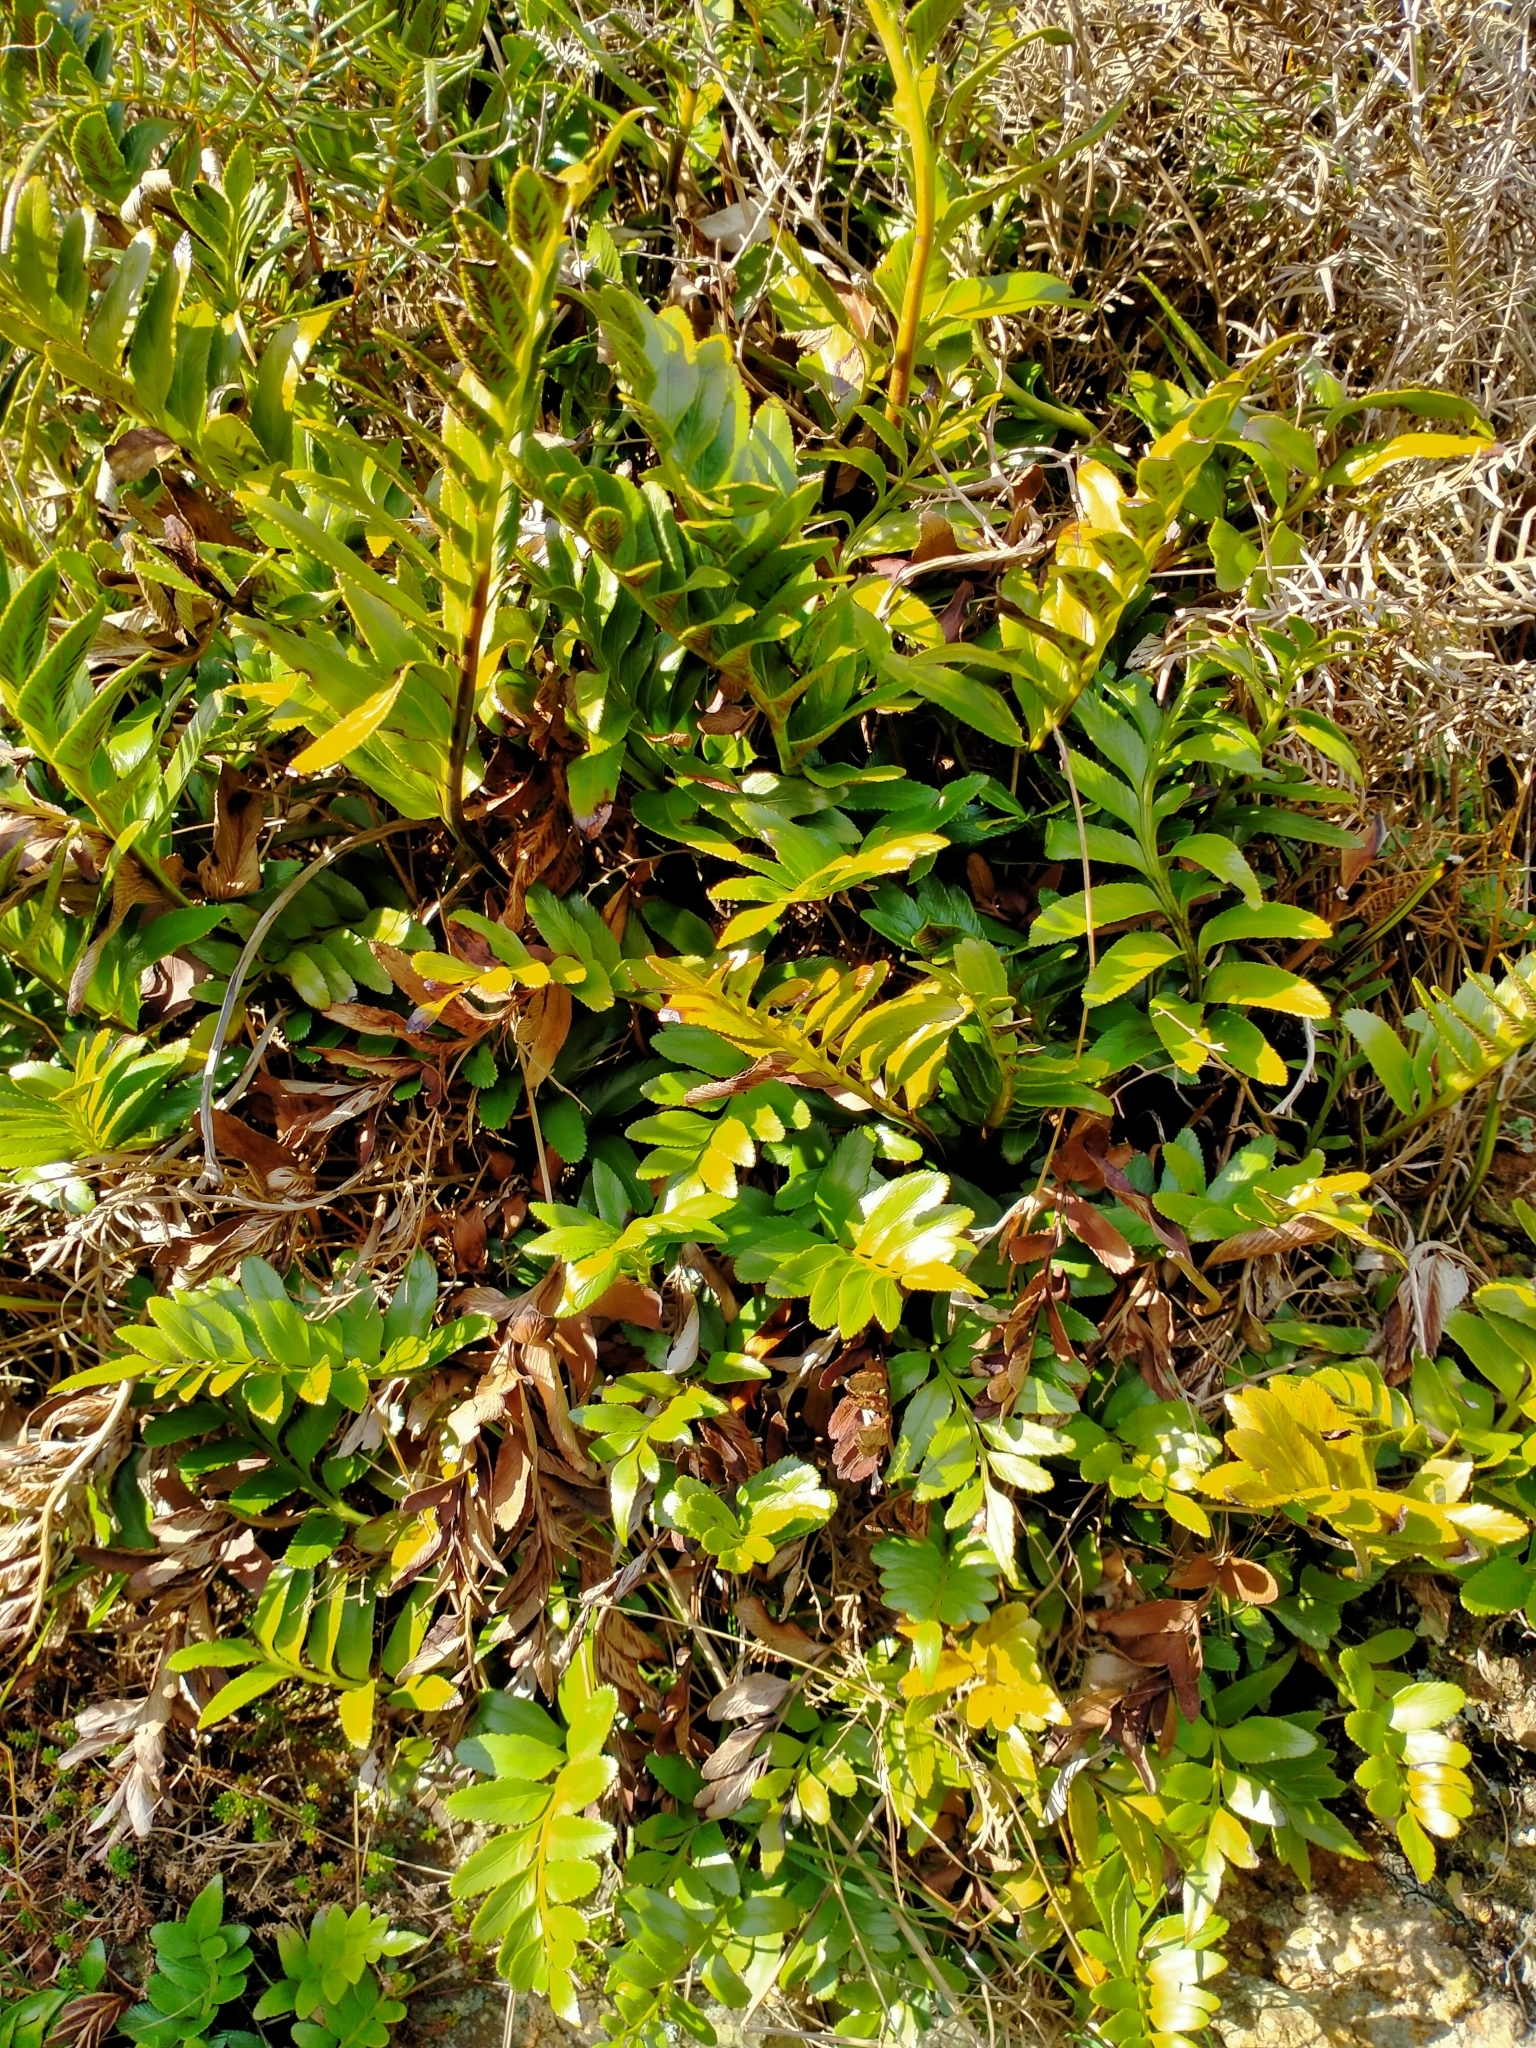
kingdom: Plantae
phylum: Tracheophyta
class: Polypodiopsida
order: Polypodiales
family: Aspleniaceae
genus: Asplenium
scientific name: Asplenium obtusatum
